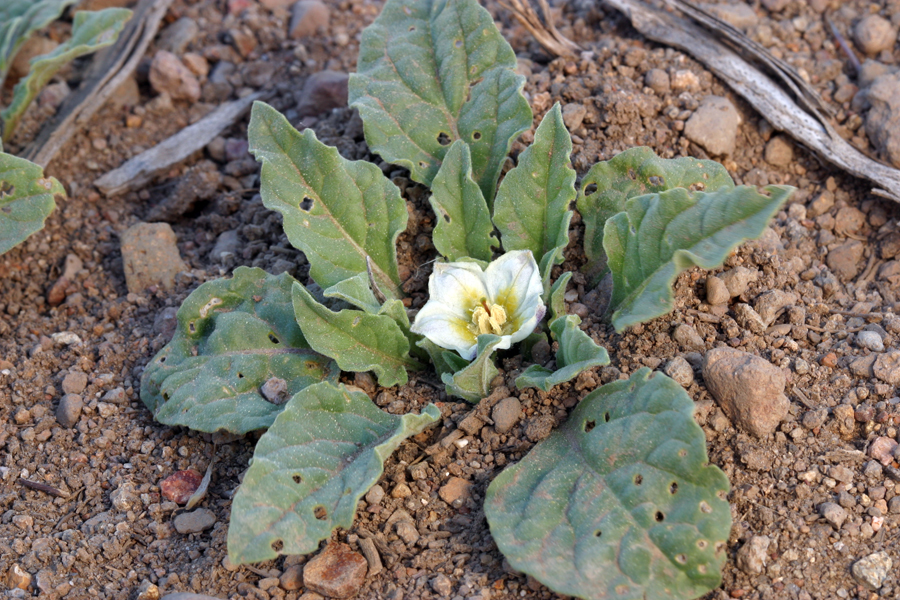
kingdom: Plantae
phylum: Tracheophyta
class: Magnoliopsida
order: Solanales
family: Solanaceae
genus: Leucophysalis
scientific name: Leucophysalis nana
